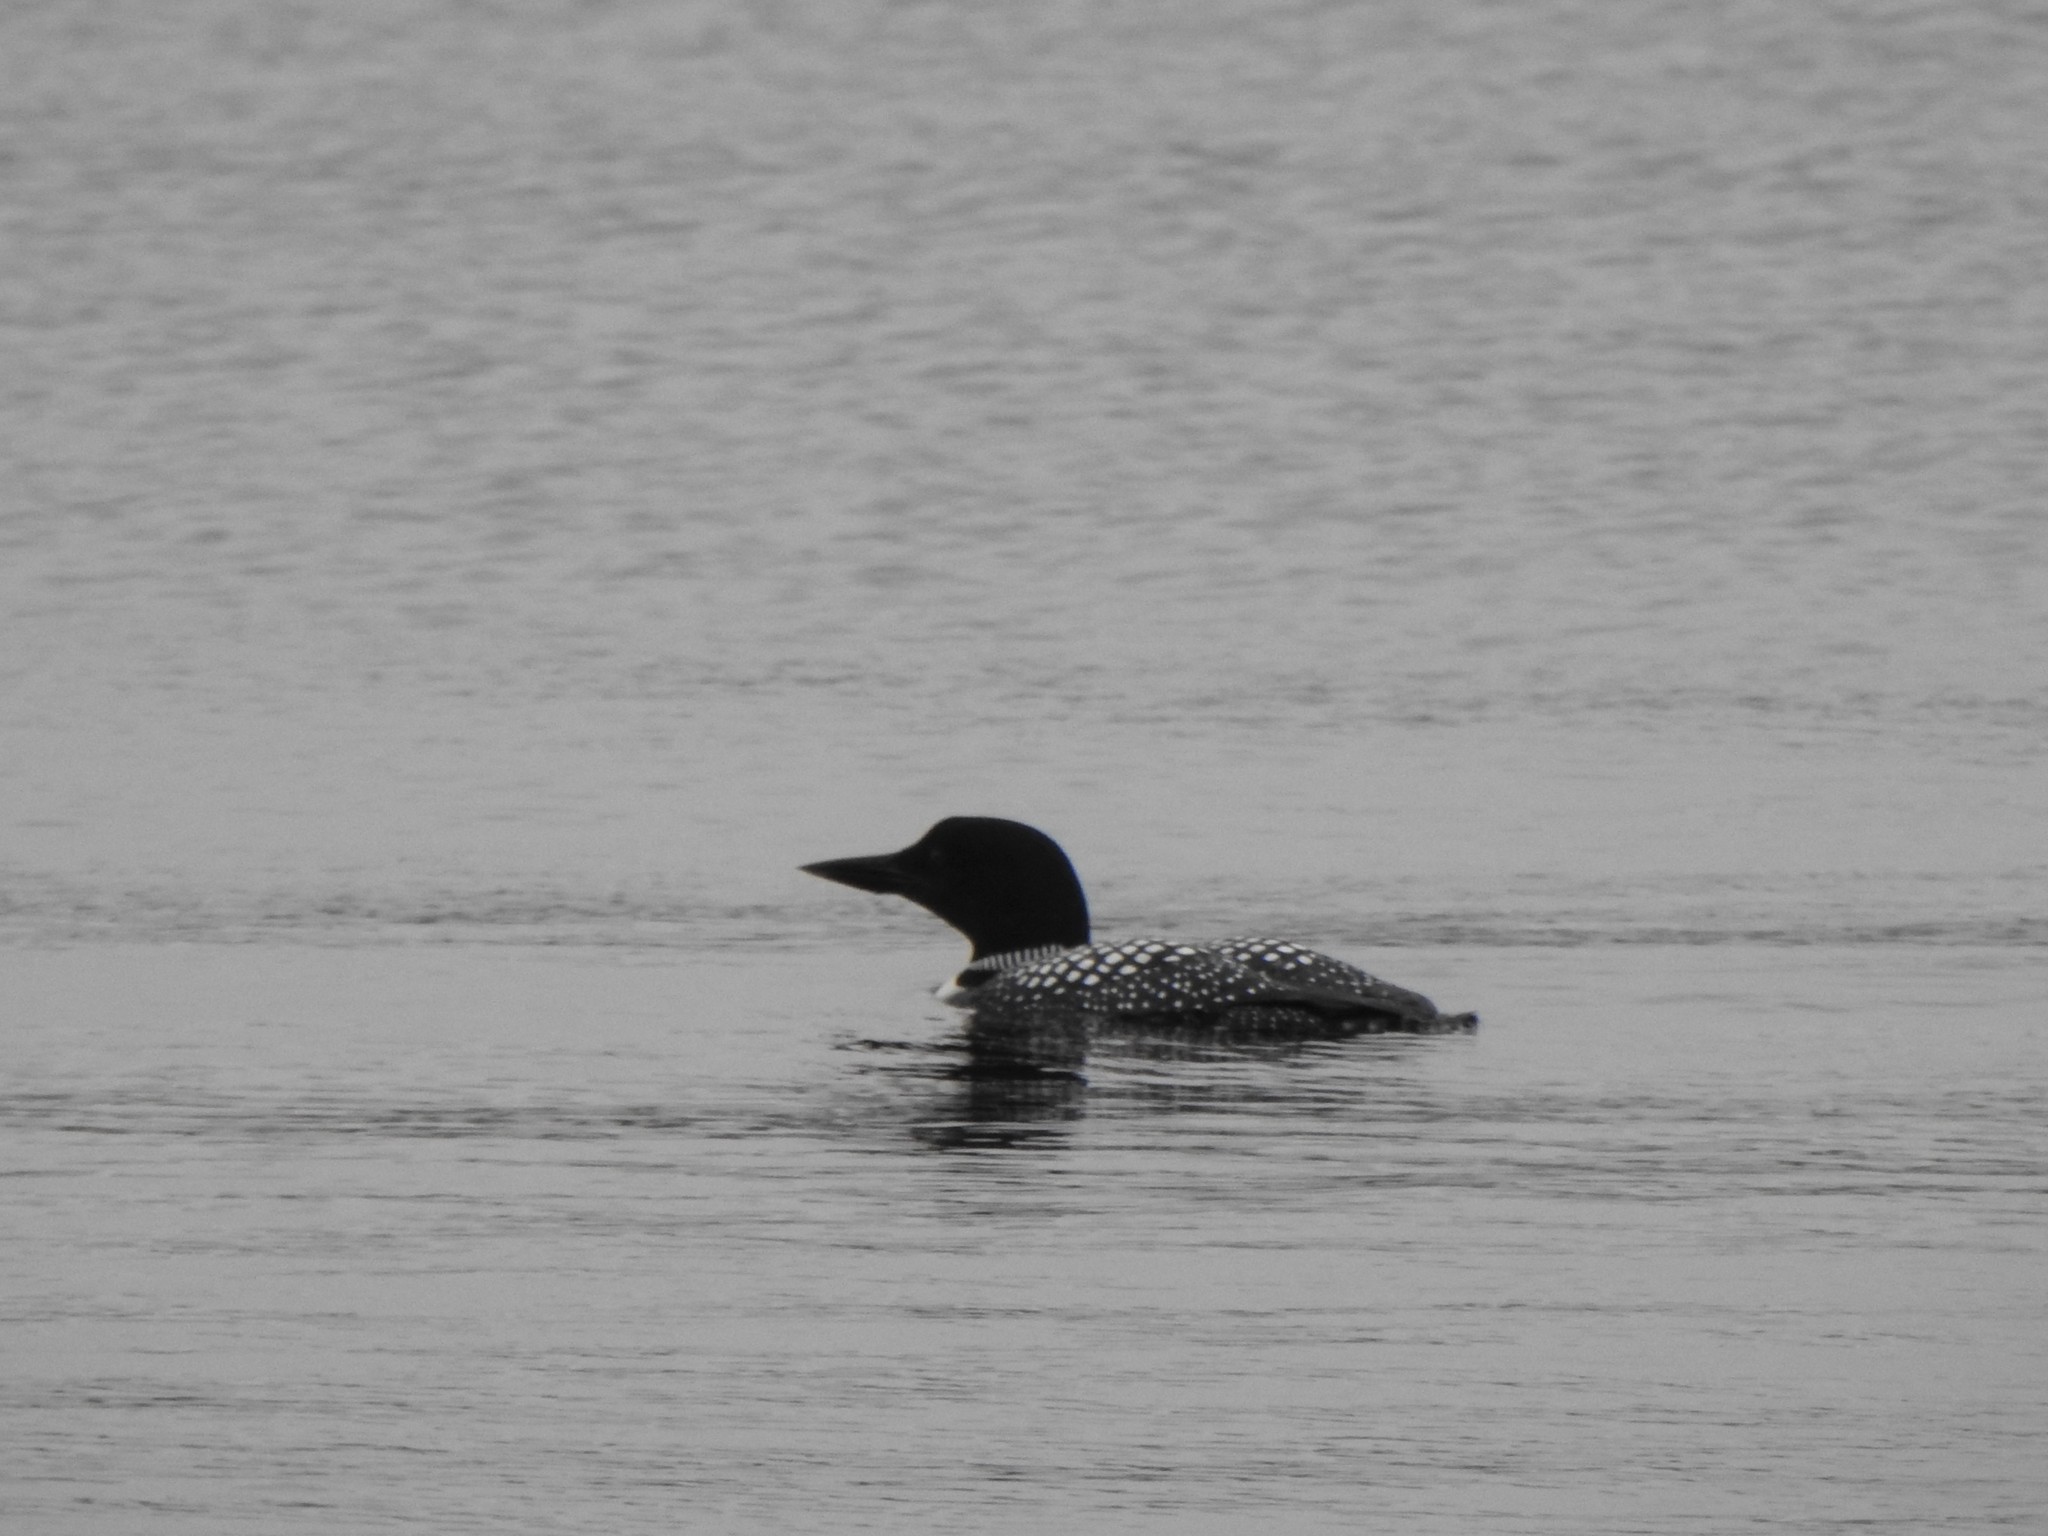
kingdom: Animalia
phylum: Chordata
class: Aves
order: Gaviiformes
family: Gaviidae
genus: Gavia
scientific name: Gavia immer
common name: Common loon
